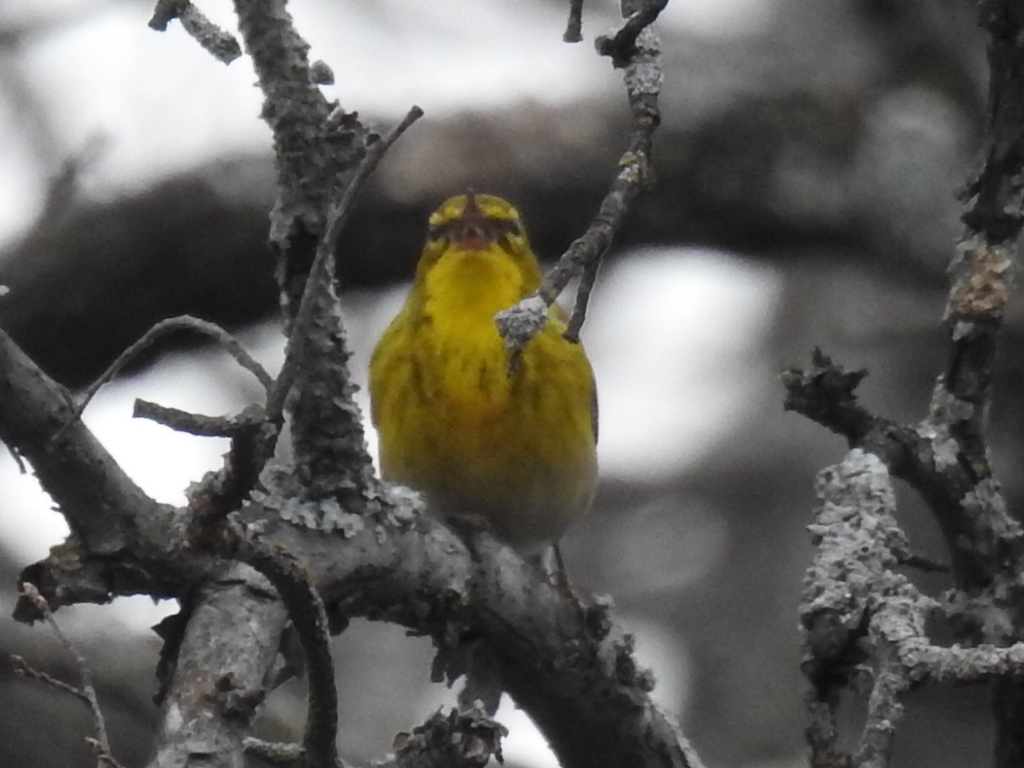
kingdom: Animalia
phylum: Chordata
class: Aves
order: Passeriformes
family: Parulidae
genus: Setophaga
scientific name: Setophaga pinus
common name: Pine warbler
